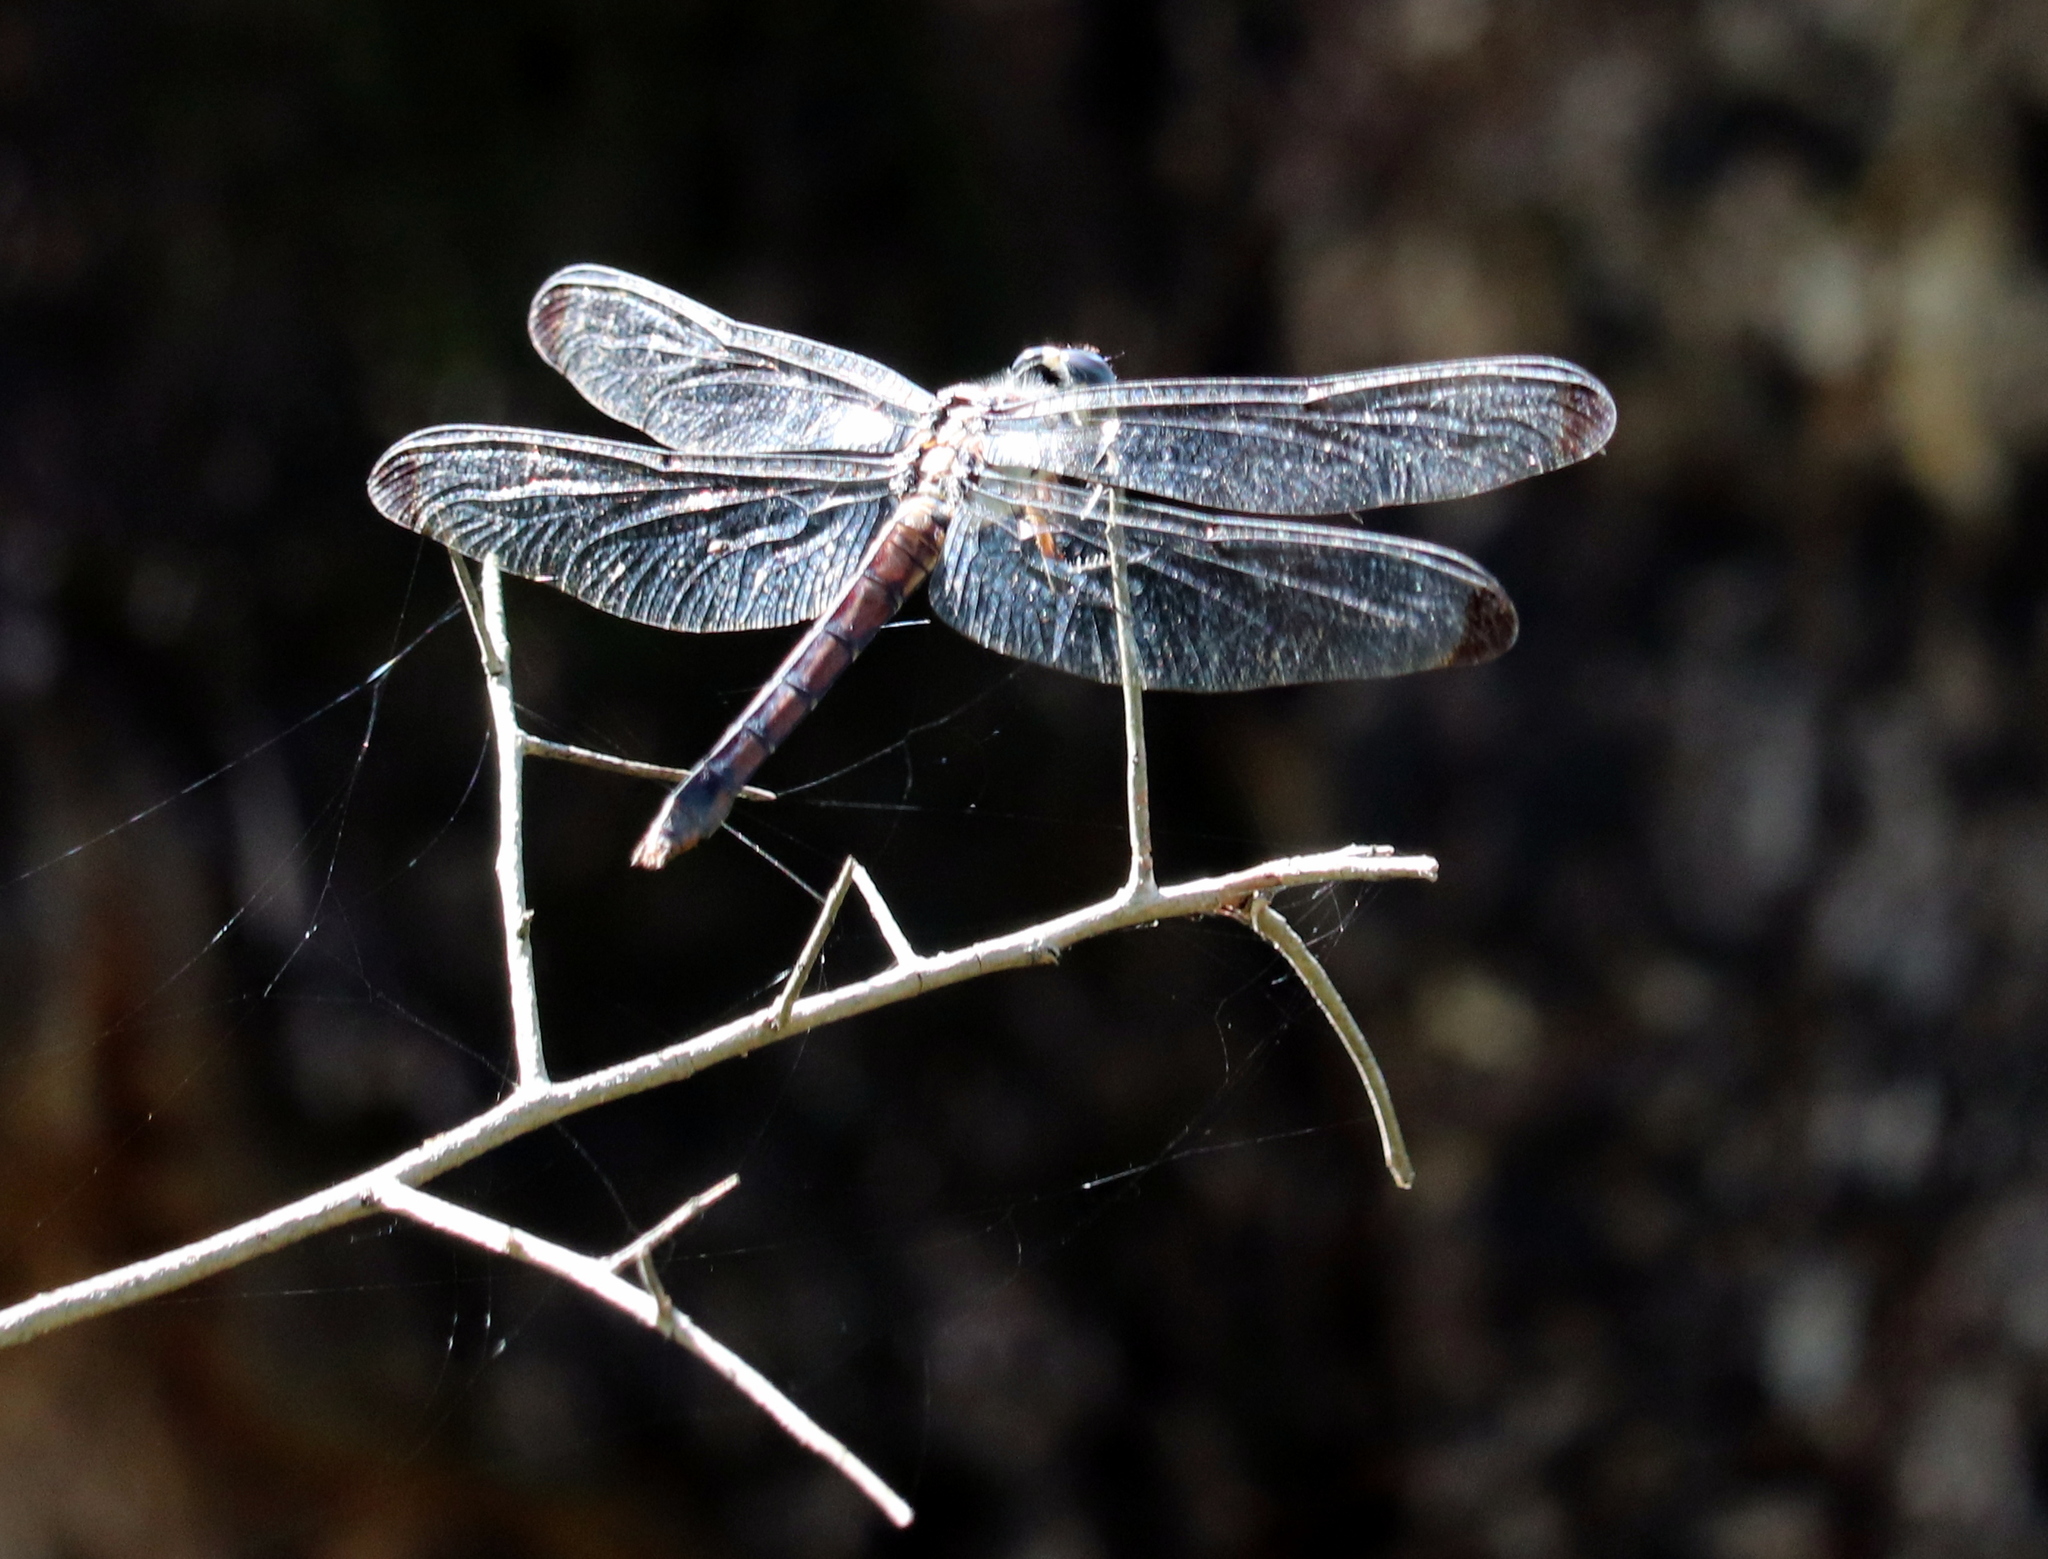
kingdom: Animalia
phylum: Arthropoda
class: Insecta
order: Odonata
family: Libellulidae
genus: Libellula
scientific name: Libellula vibrans
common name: Great blue skimmer
